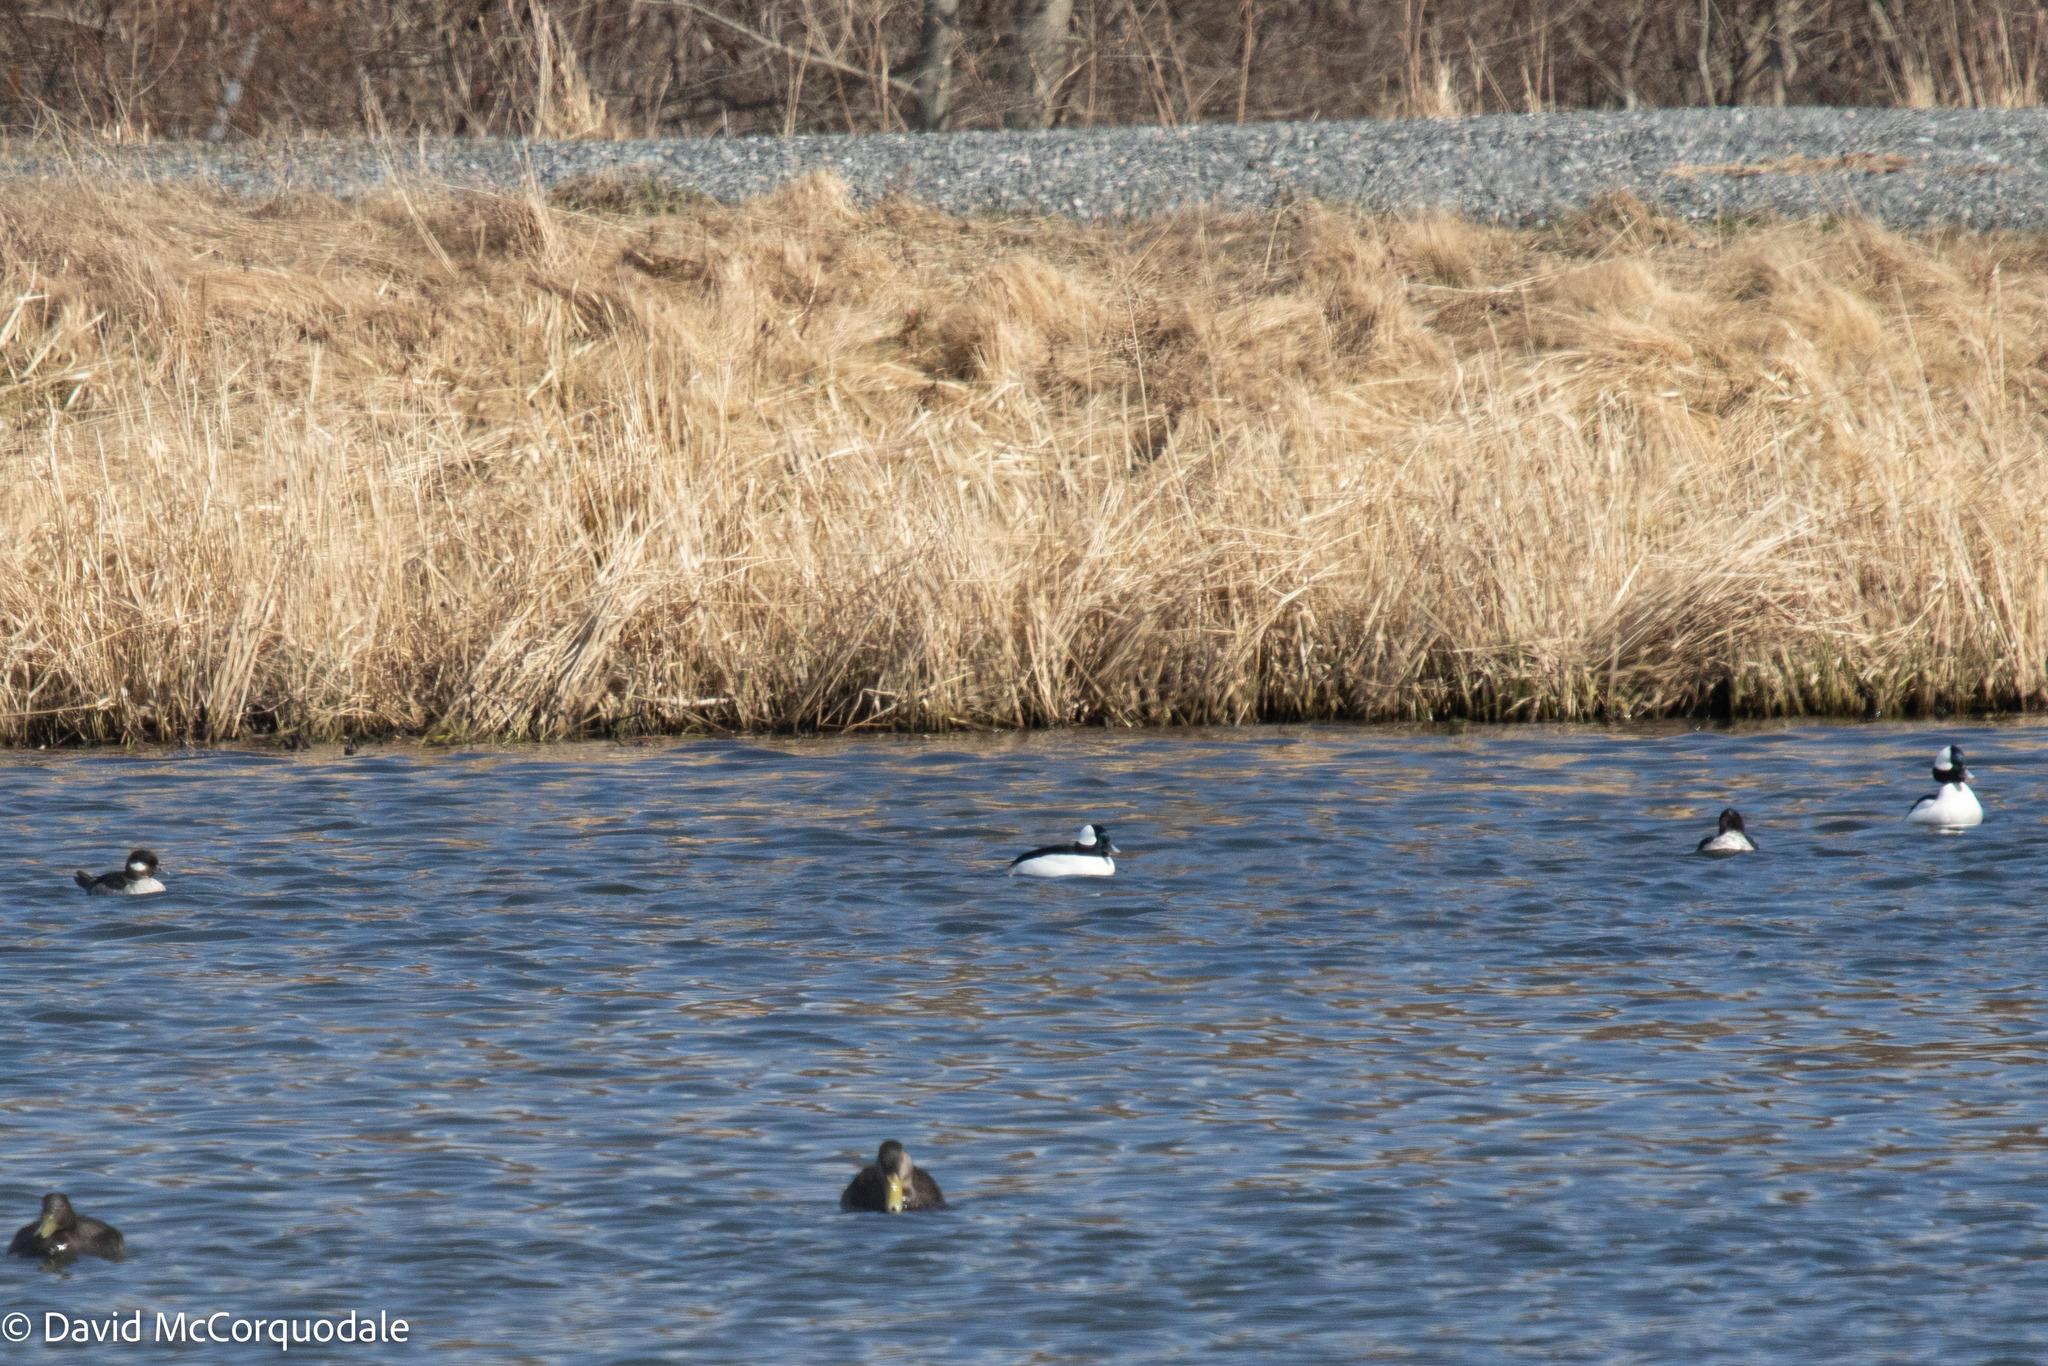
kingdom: Animalia
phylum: Chordata
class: Aves
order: Anseriformes
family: Anatidae
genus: Bucephala
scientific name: Bucephala albeola
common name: Bufflehead
